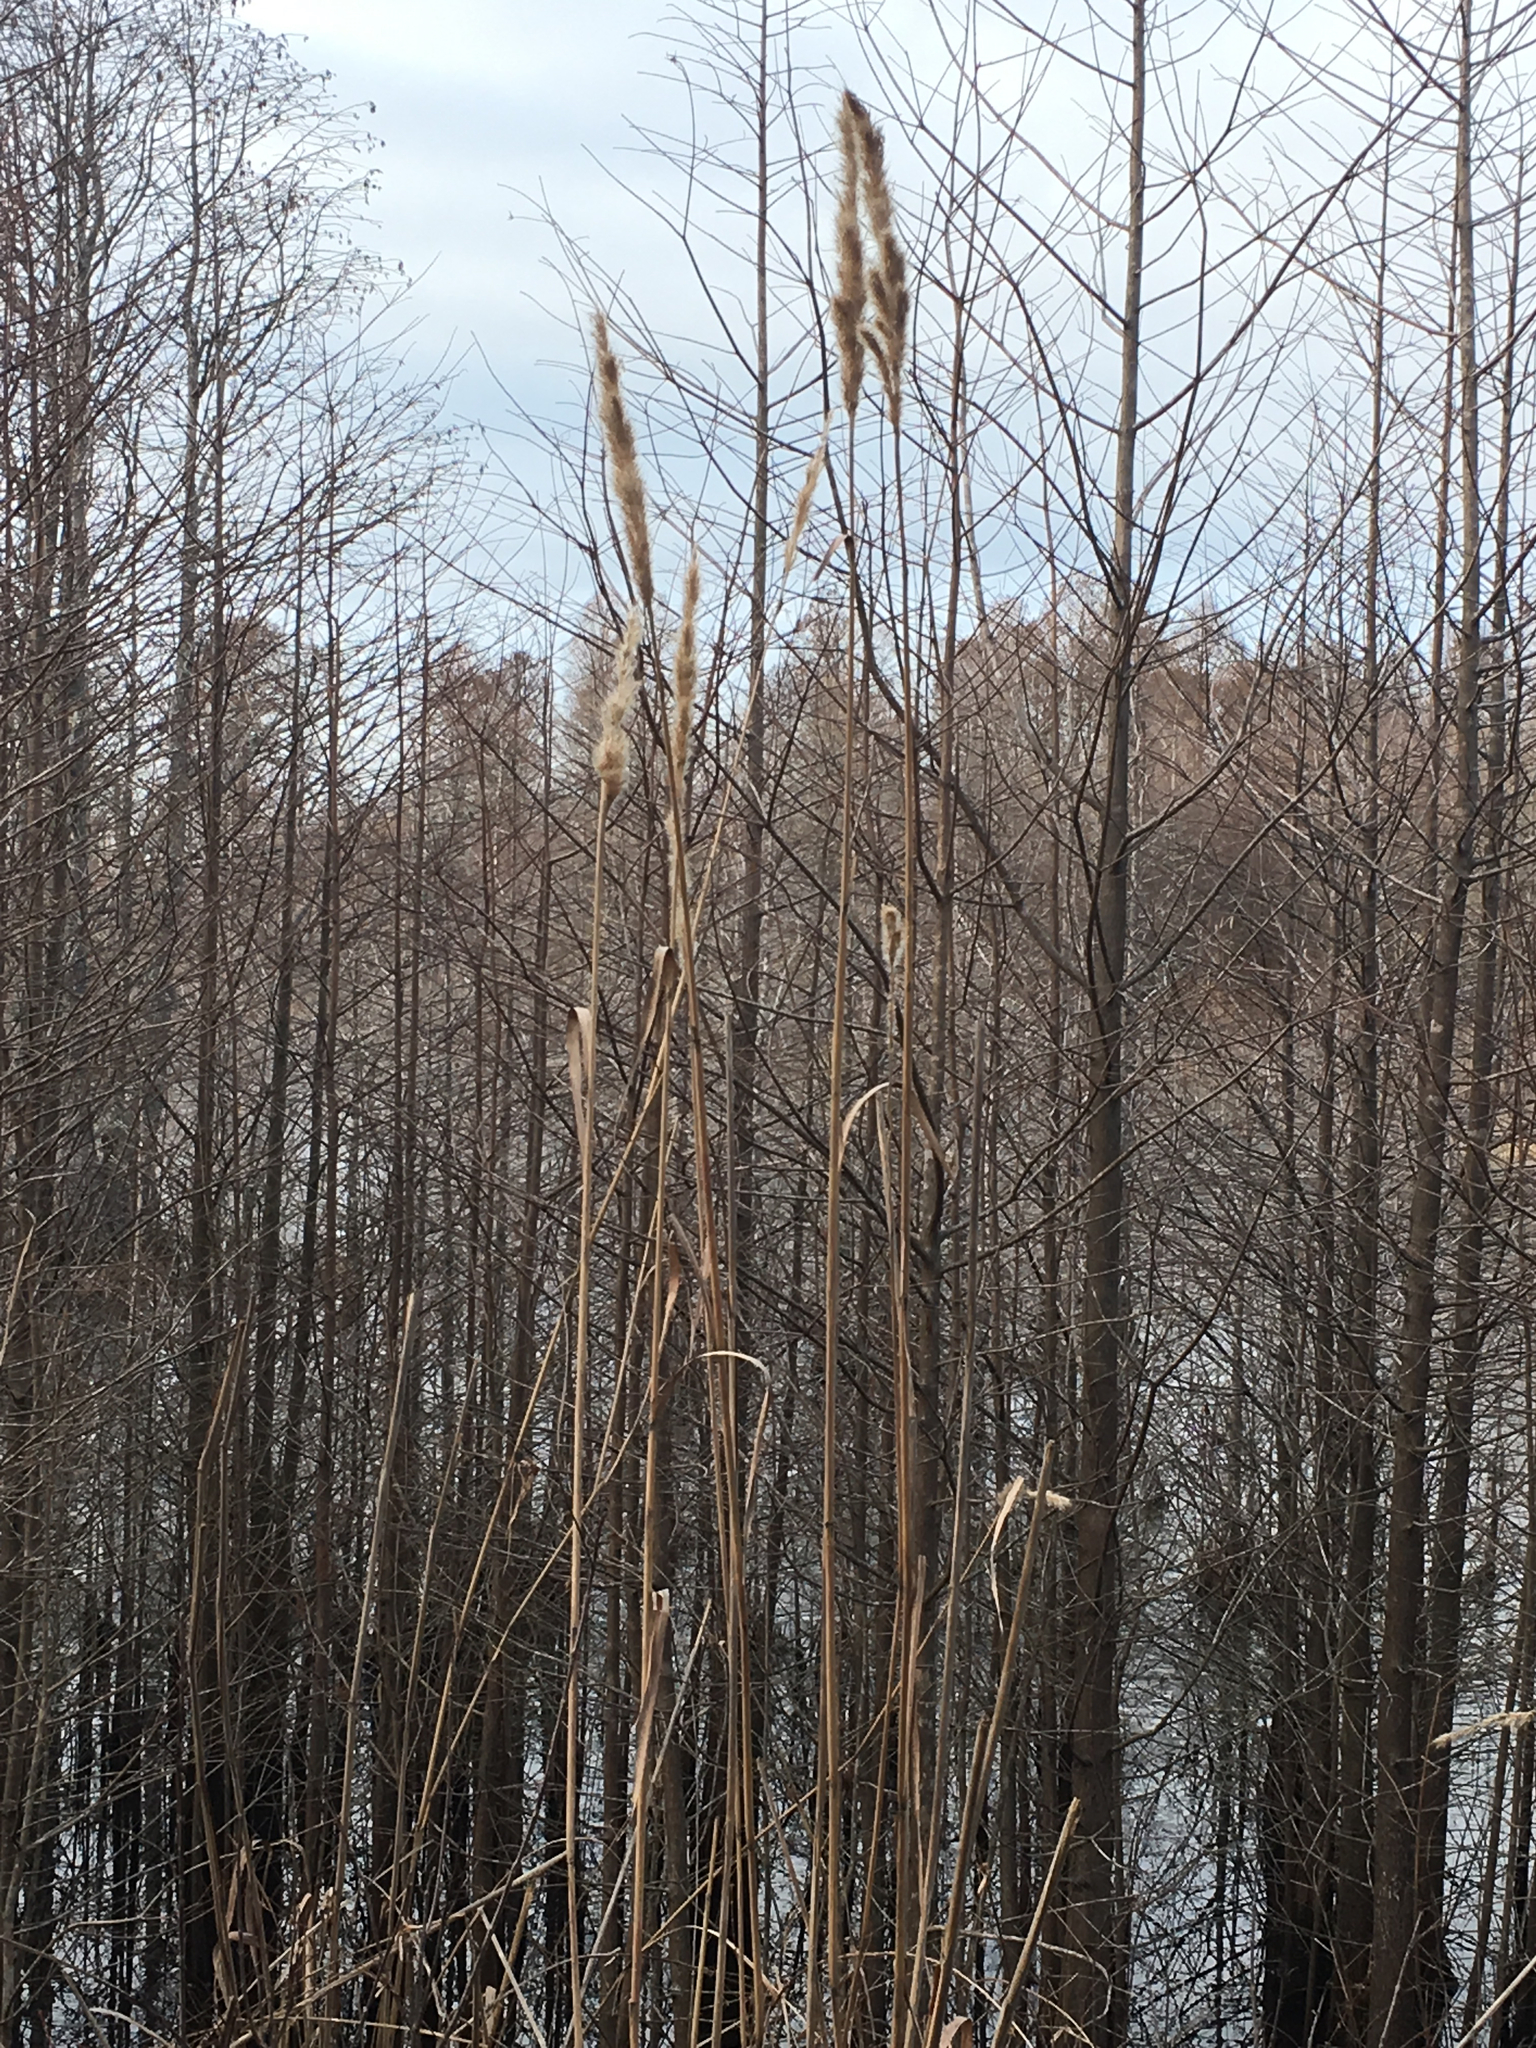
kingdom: Plantae
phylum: Tracheophyta
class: Liliopsida
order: Poales
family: Poaceae
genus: Erianthus
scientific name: Erianthus giganteus
